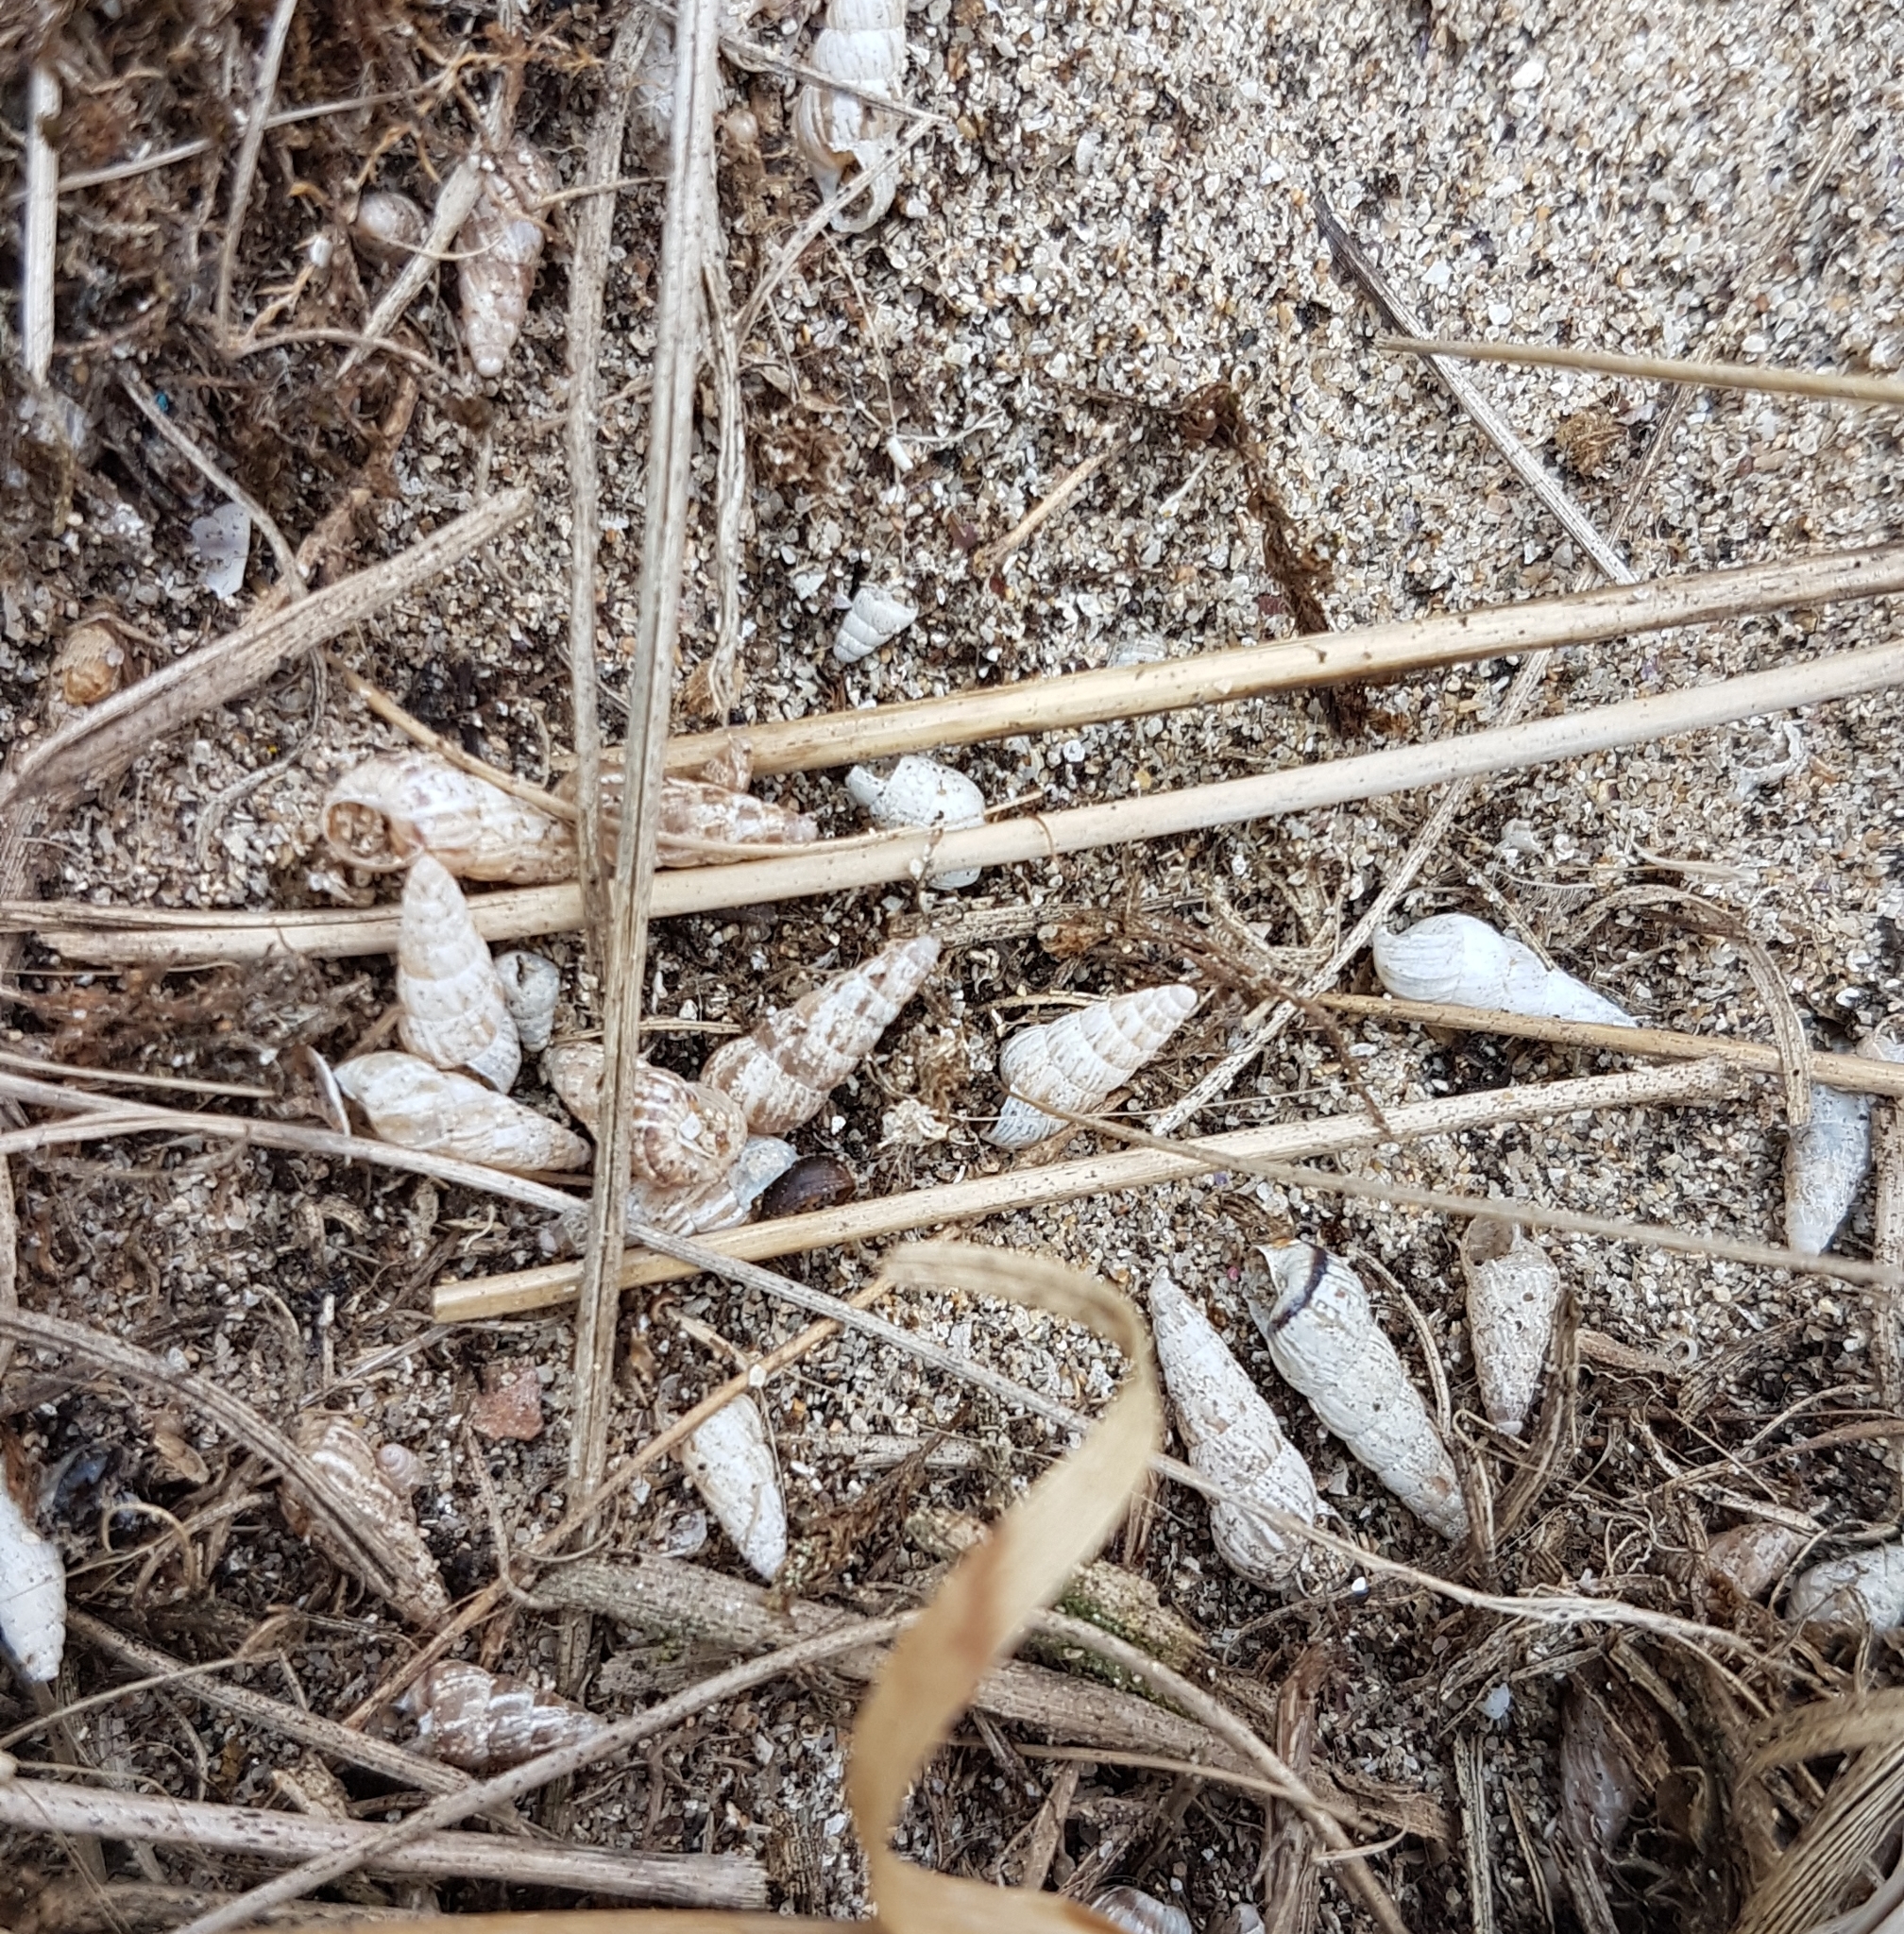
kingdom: Animalia
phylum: Mollusca
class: Gastropoda
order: Stylommatophora
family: Geomitridae
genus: Cochlicella
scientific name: Cochlicella acuta
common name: Pointed snail
